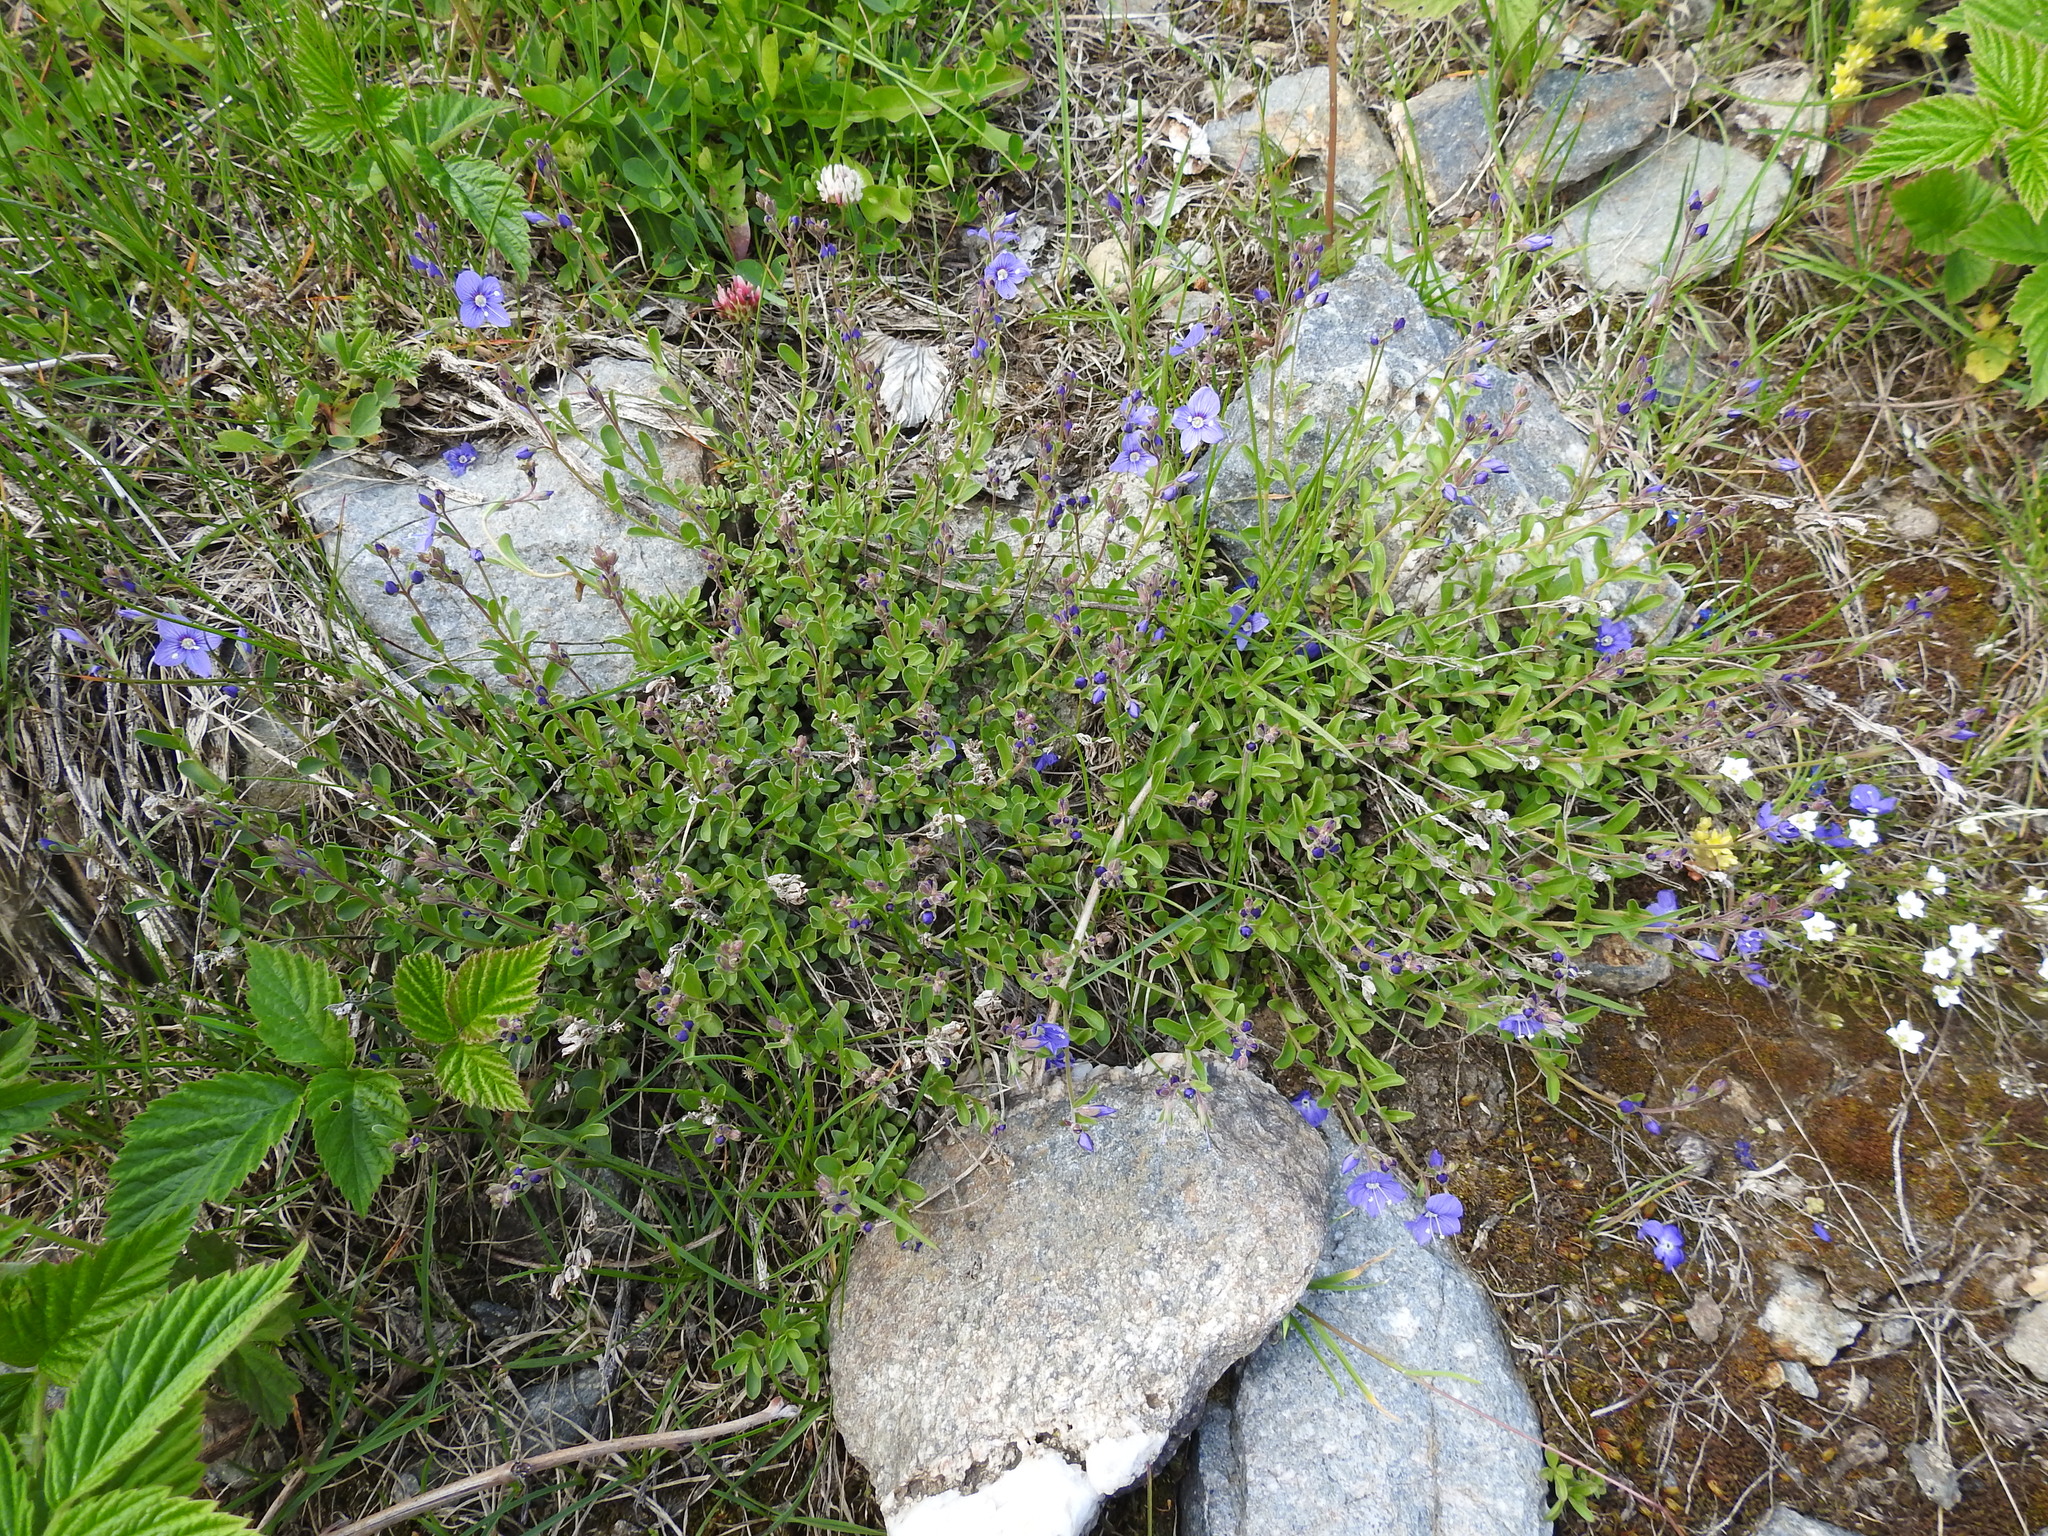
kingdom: Plantae
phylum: Tracheophyta
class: Magnoliopsida
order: Lamiales
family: Plantaginaceae
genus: Veronica
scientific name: Veronica fruticans
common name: Rock speedwell
